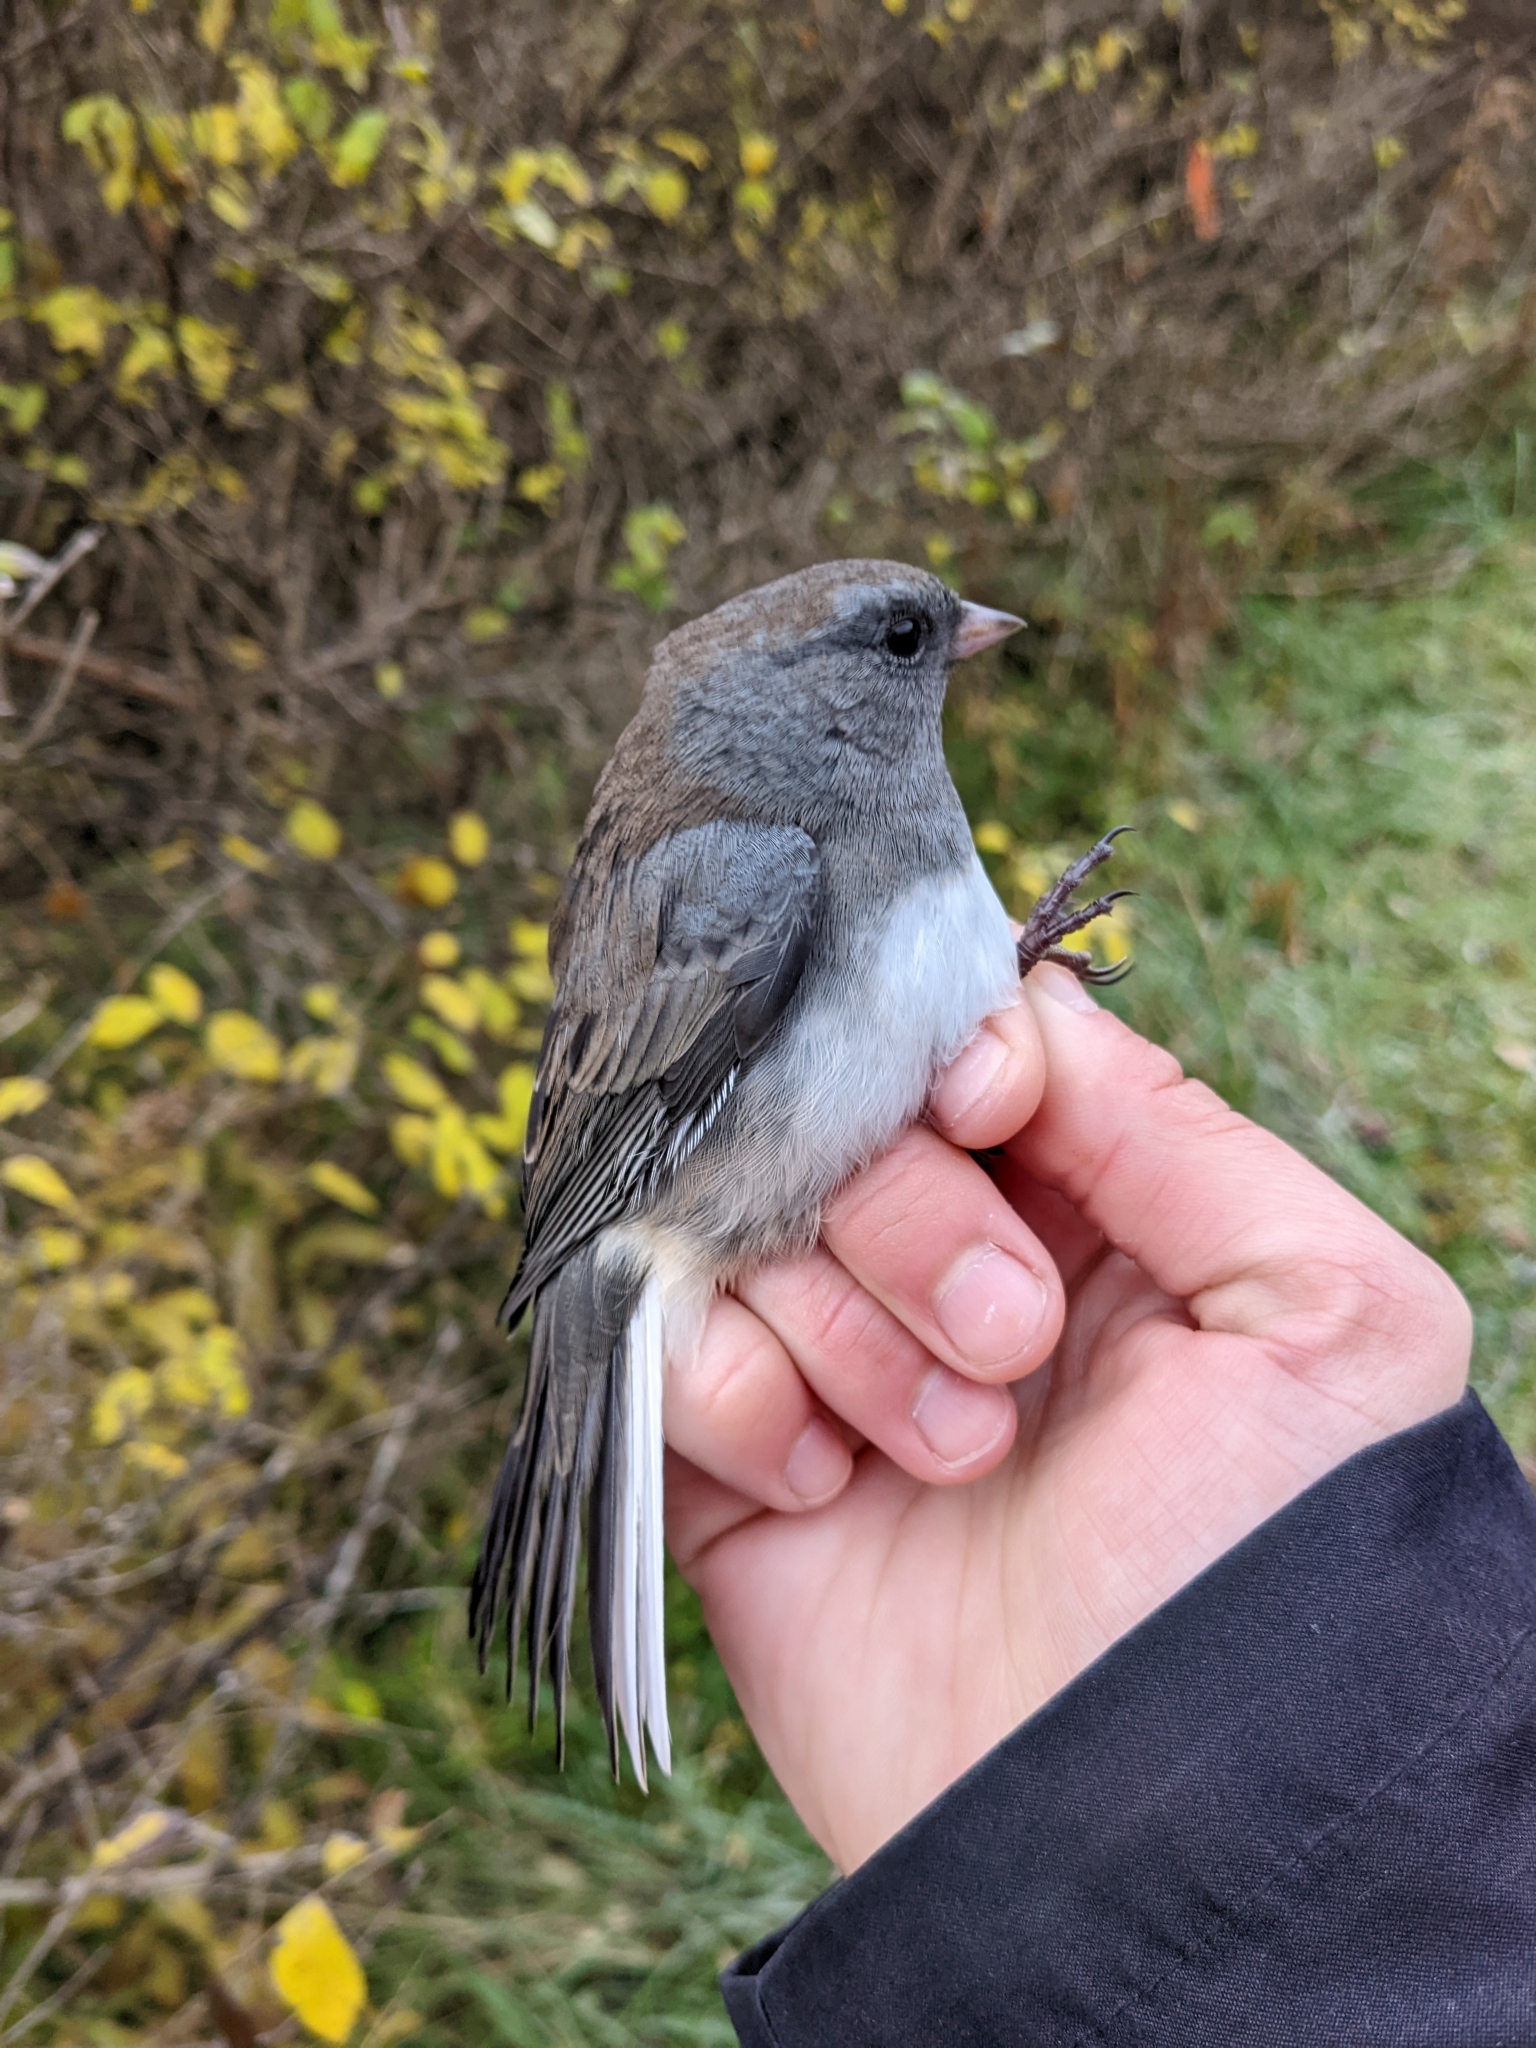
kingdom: Animalia
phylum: Chordata
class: Aves
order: Passeriformes
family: Passerellidae
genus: Junco
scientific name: Junco hyemalis
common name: Dark-eyed junco
